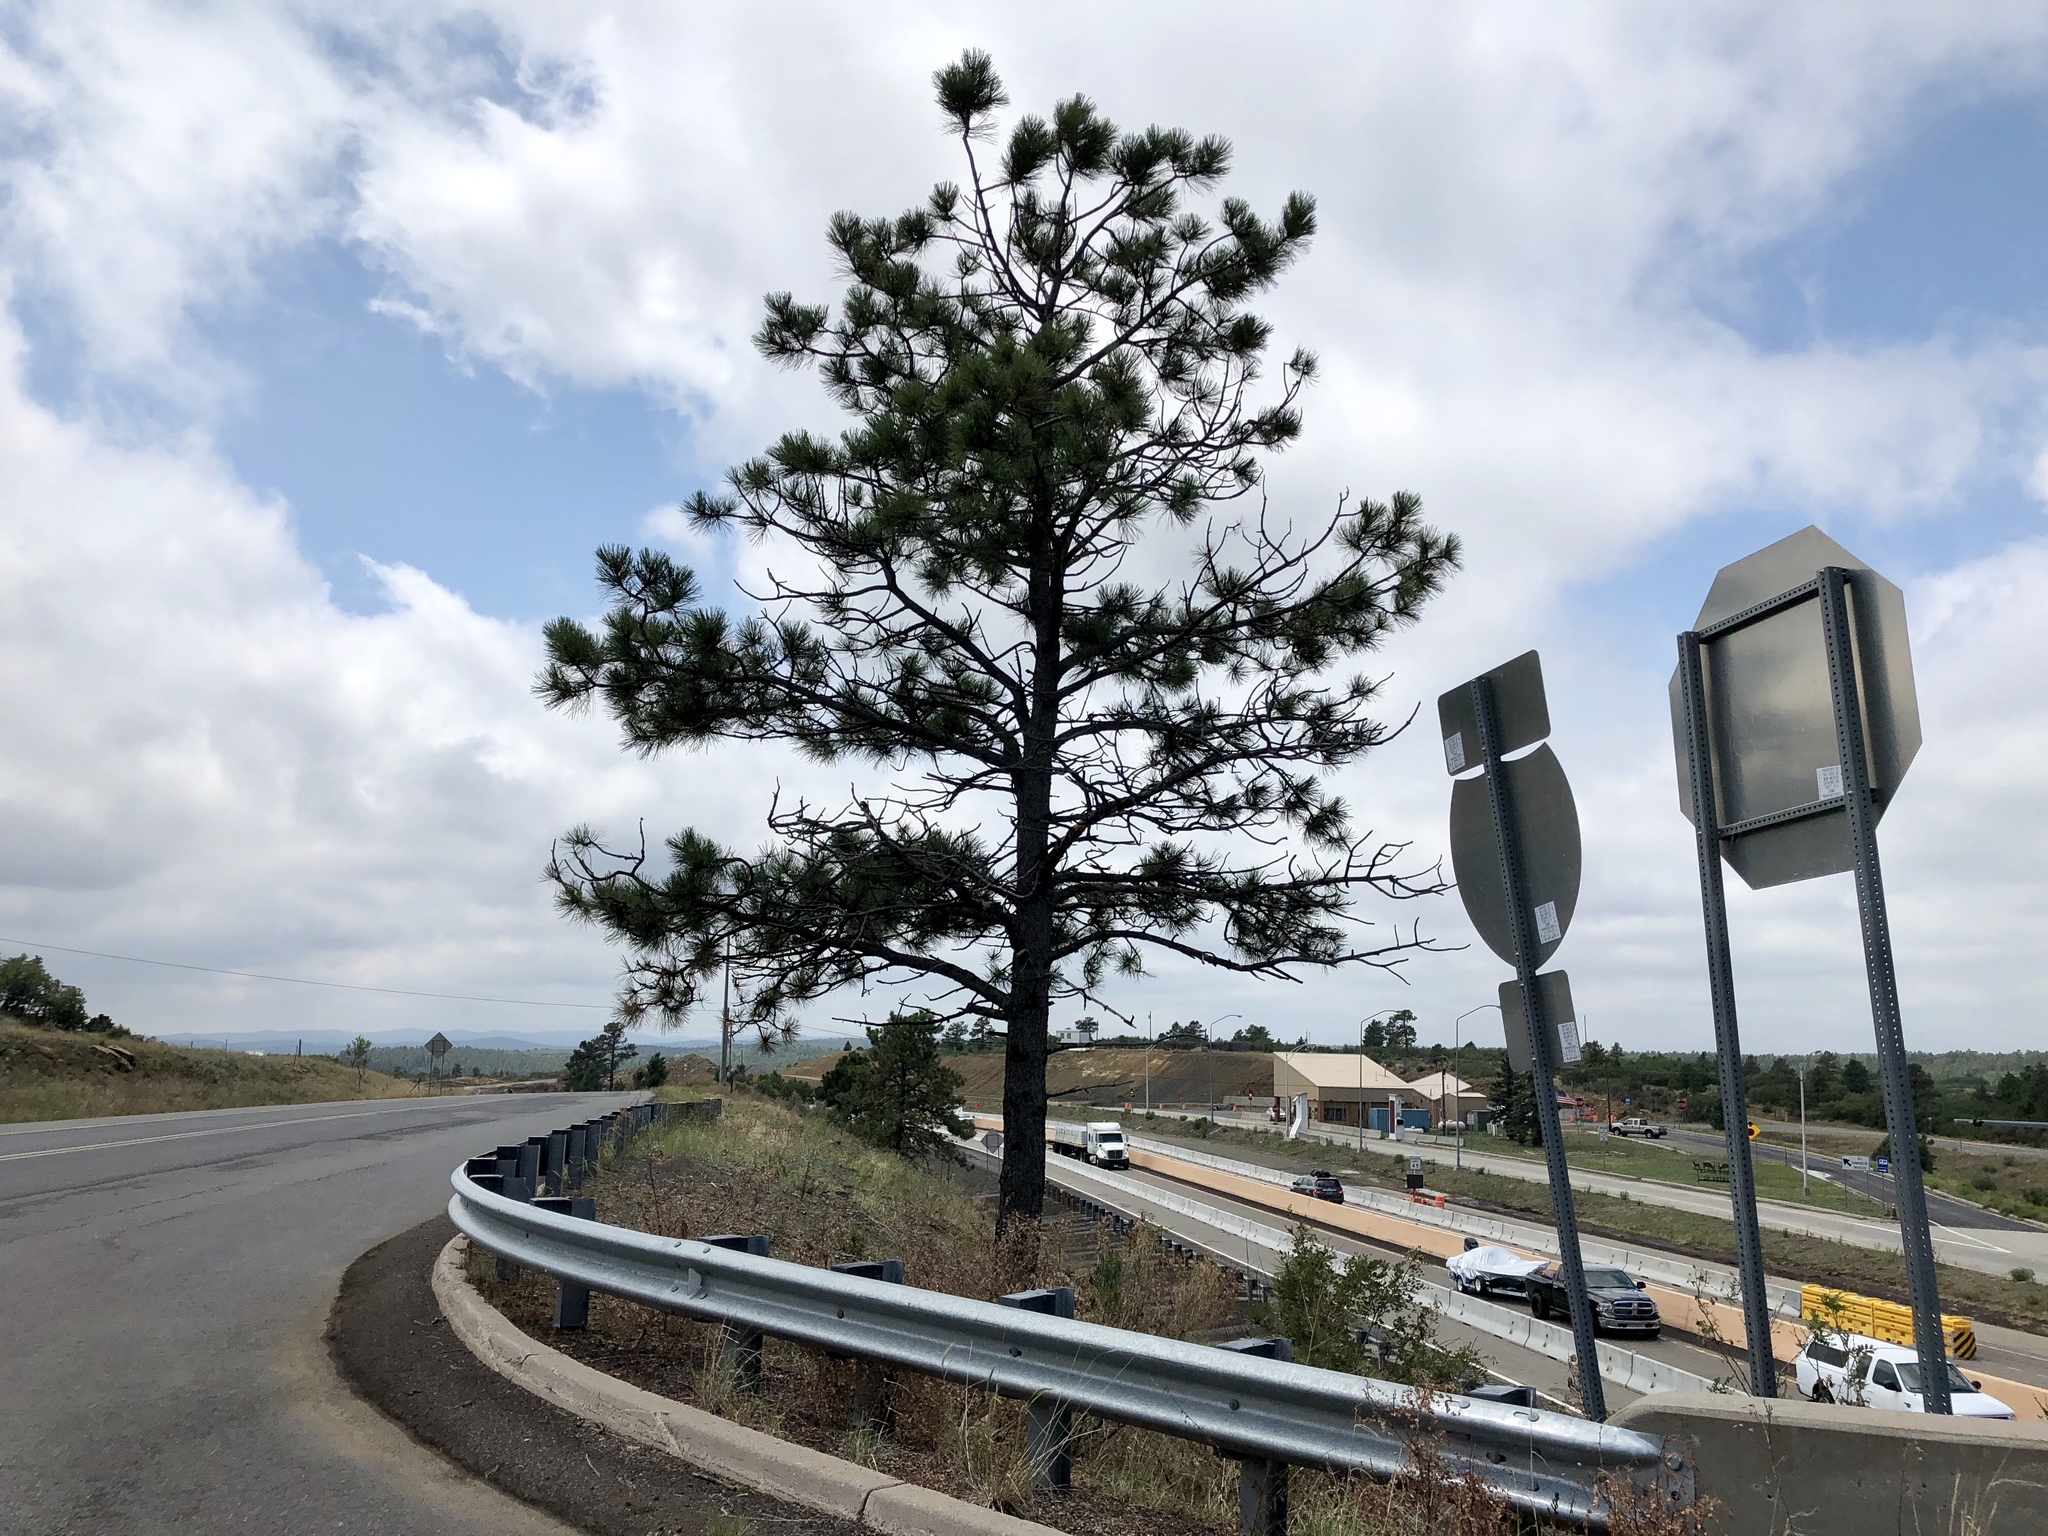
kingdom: Plantae
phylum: Tracheophyta
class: Pinopsida
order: Pinales
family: Pinaceae
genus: Pinus
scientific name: Pinus ponderosa
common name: Western yellow-pine
